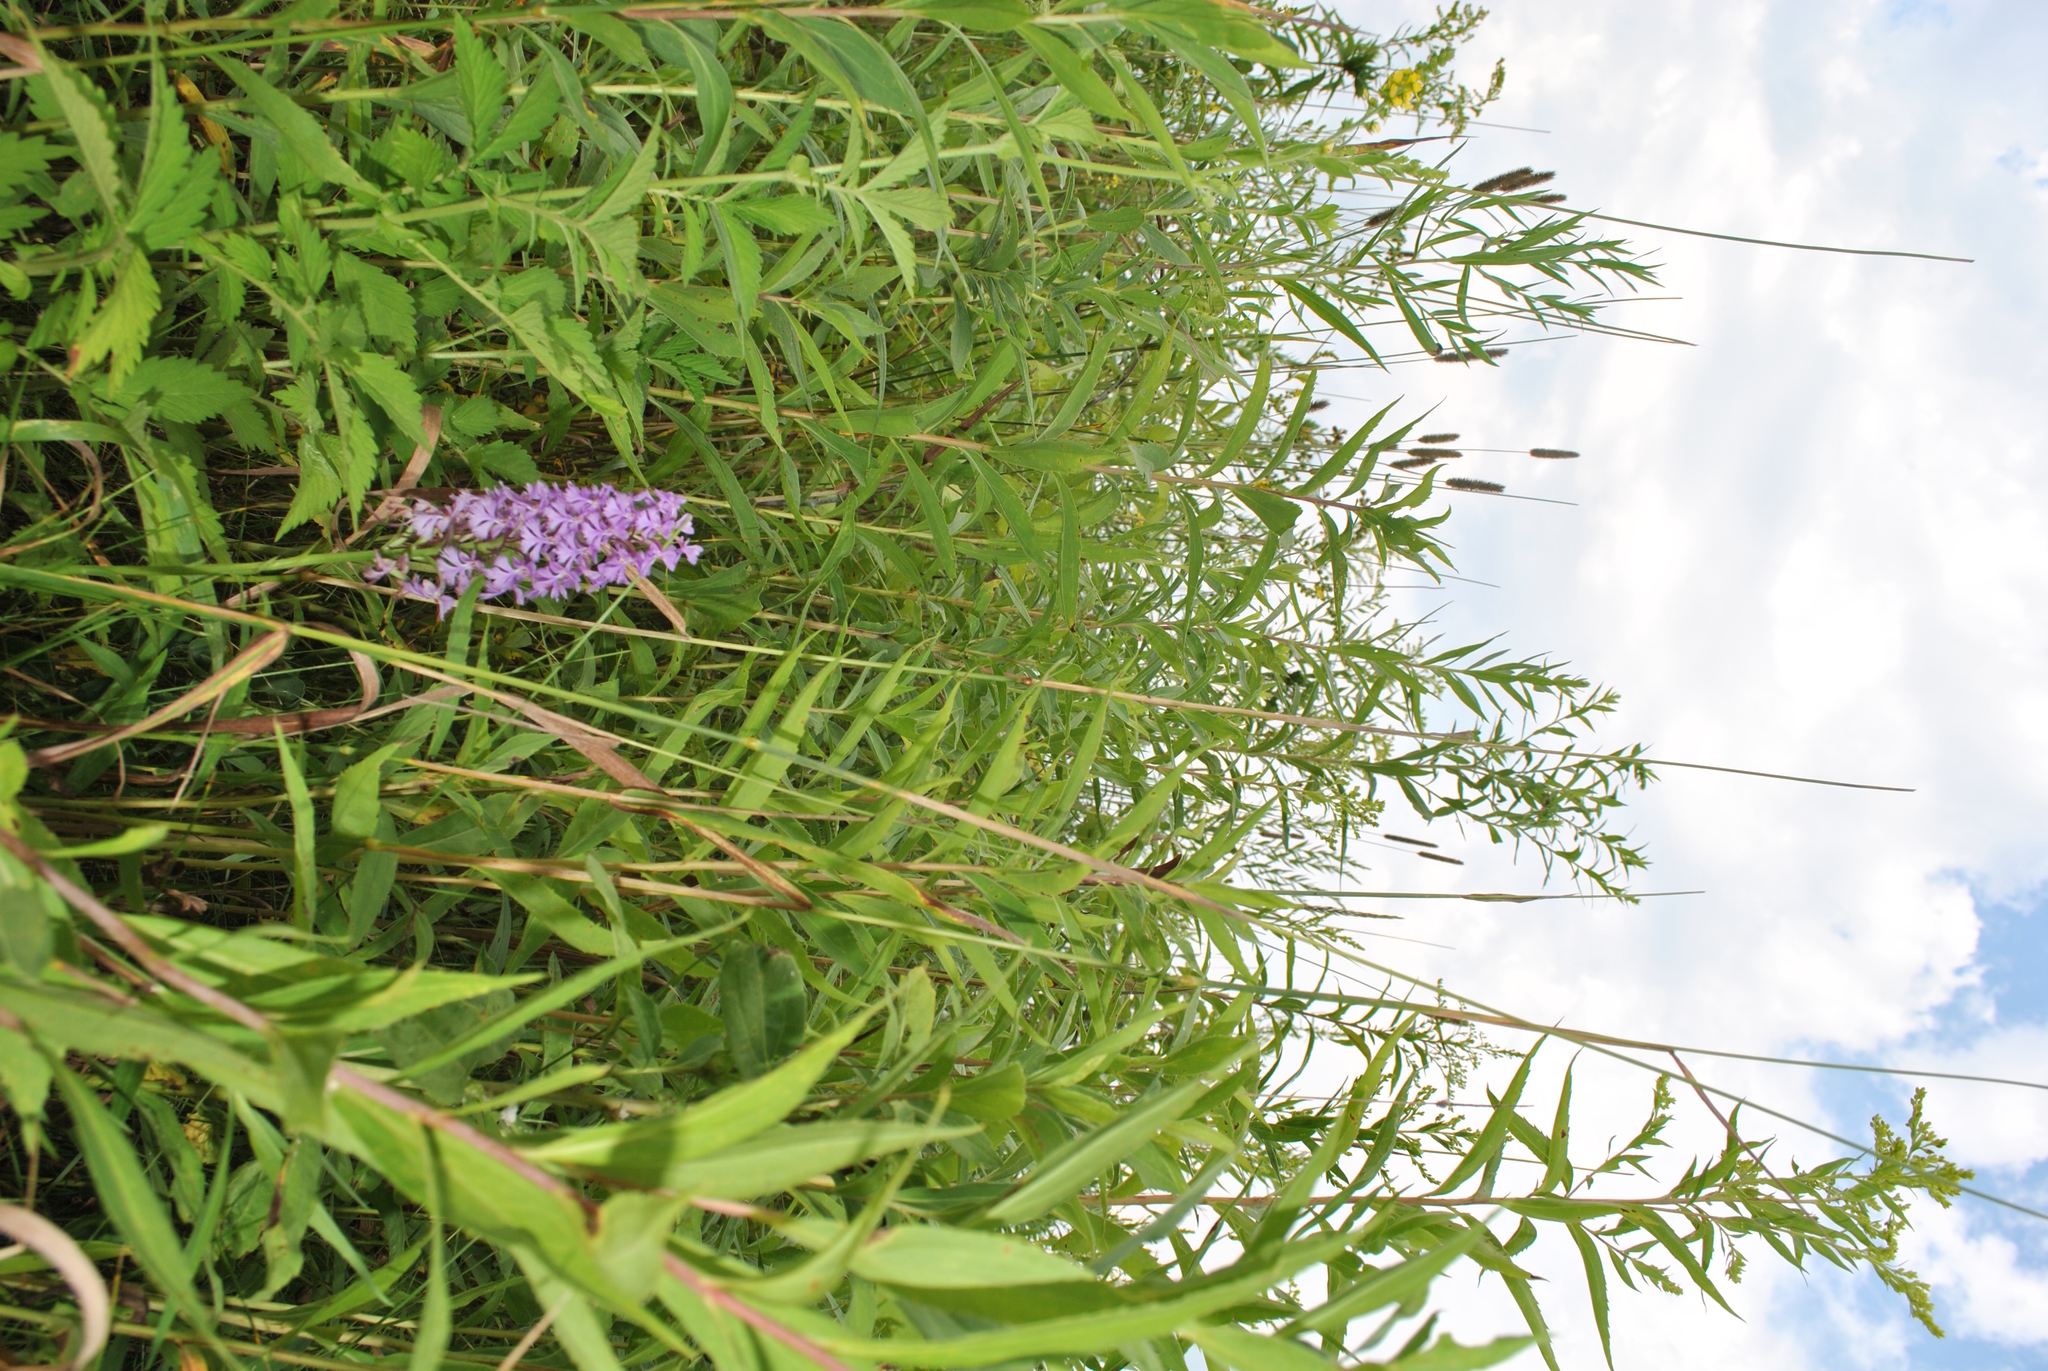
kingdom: Plantae
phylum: Tracheophyta
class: Liliopsida
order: Asparagales
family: Orchidaceae
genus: Platanthera
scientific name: Platanthera psycodes
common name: Lesser purple fringed orchid
